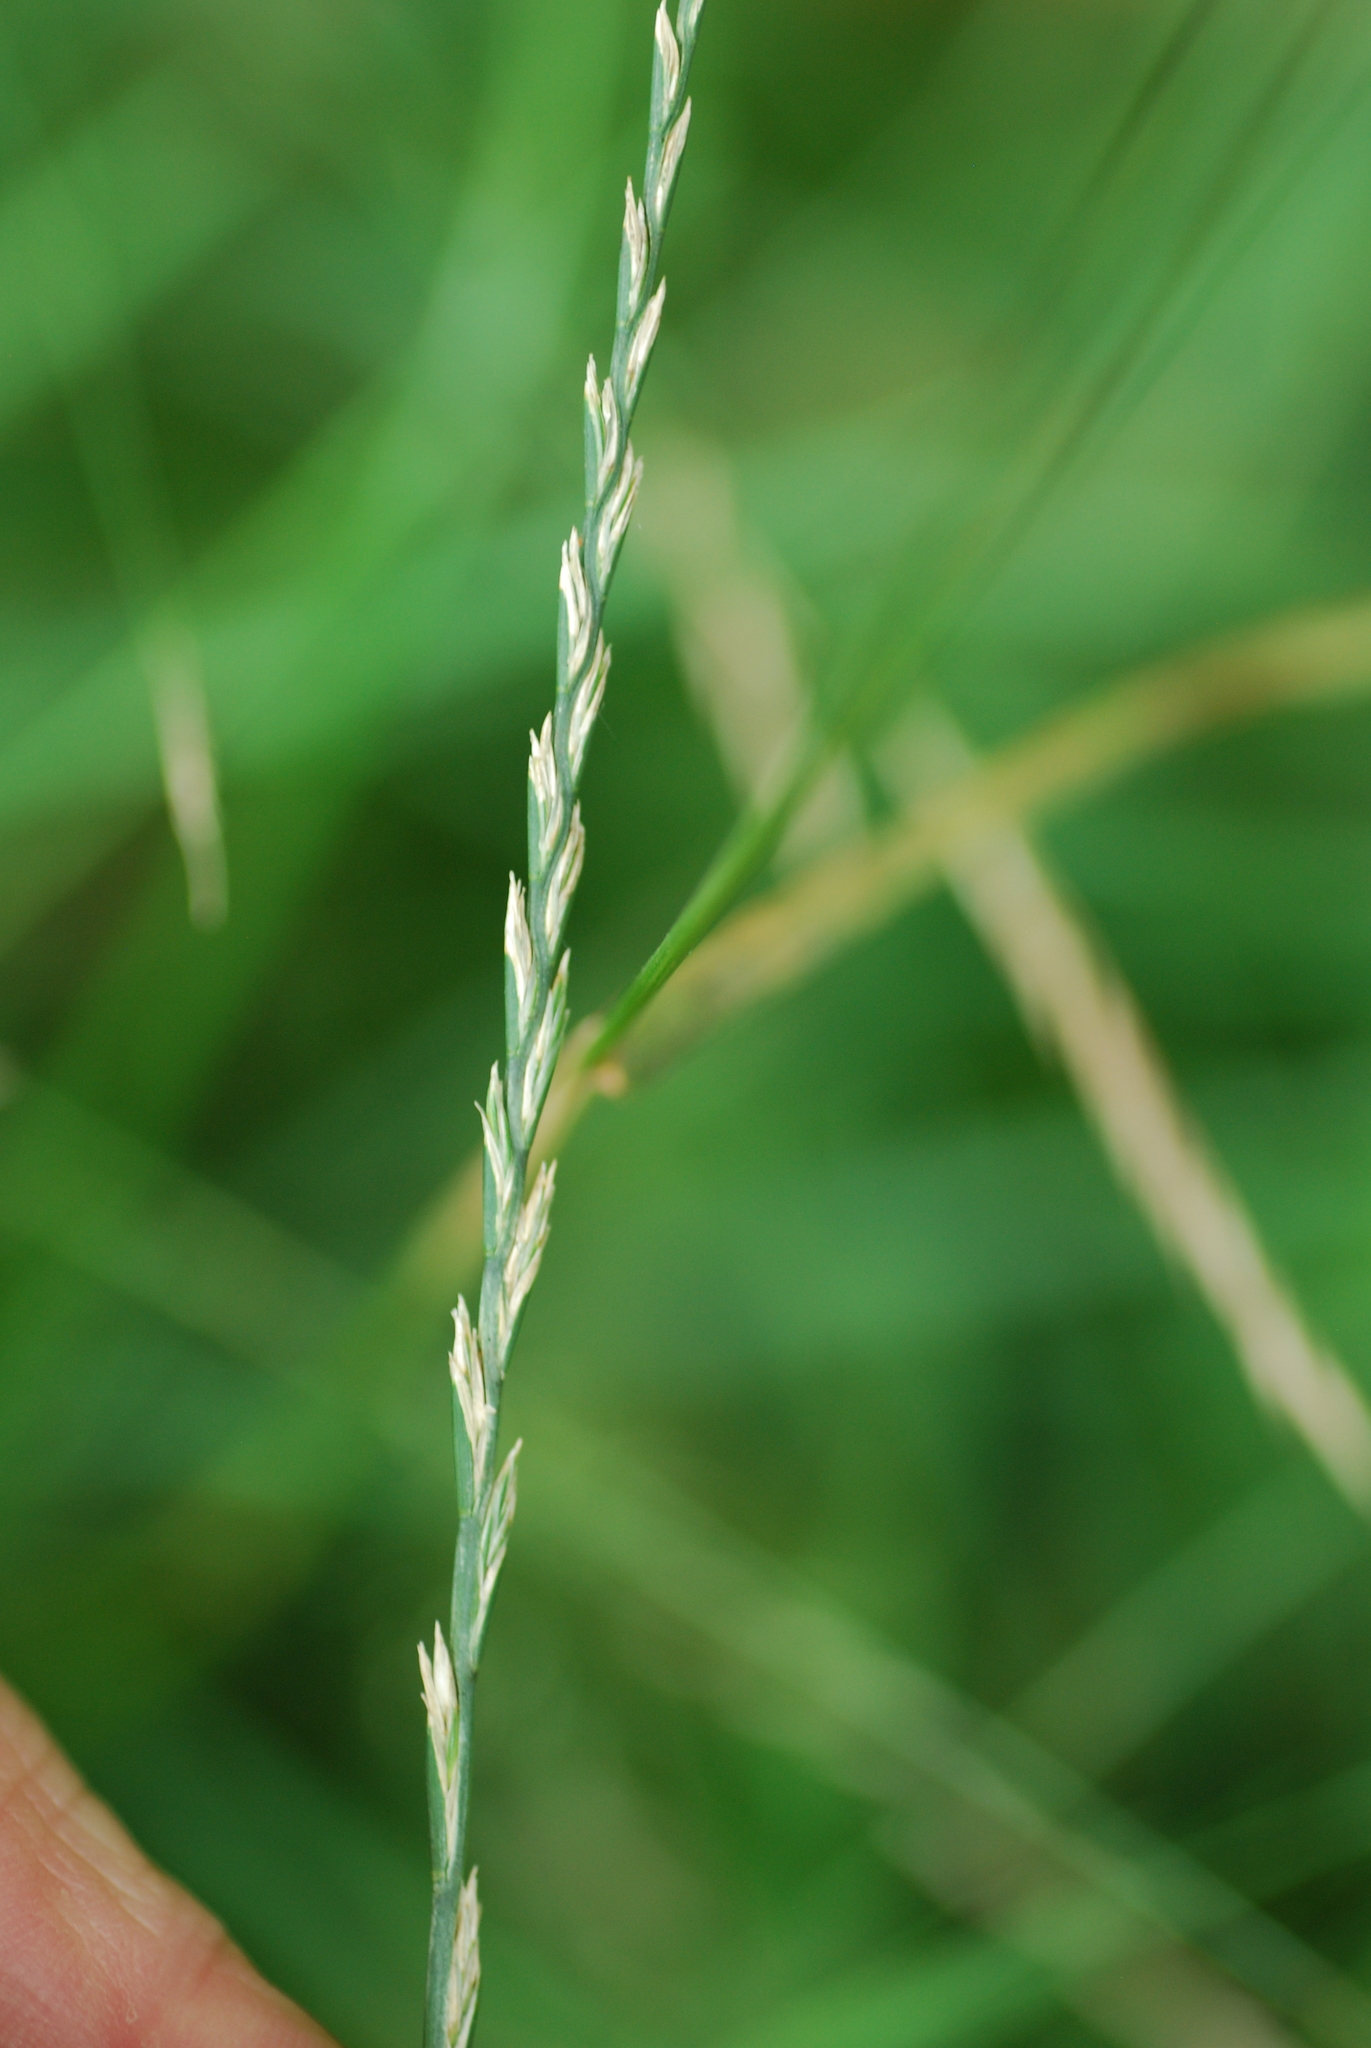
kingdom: Plantae
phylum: Tracheophyta
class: Liliopsida
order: Poales
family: Poaceae
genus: Lolium
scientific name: Lolium perenne
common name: Perennial ryegrass
